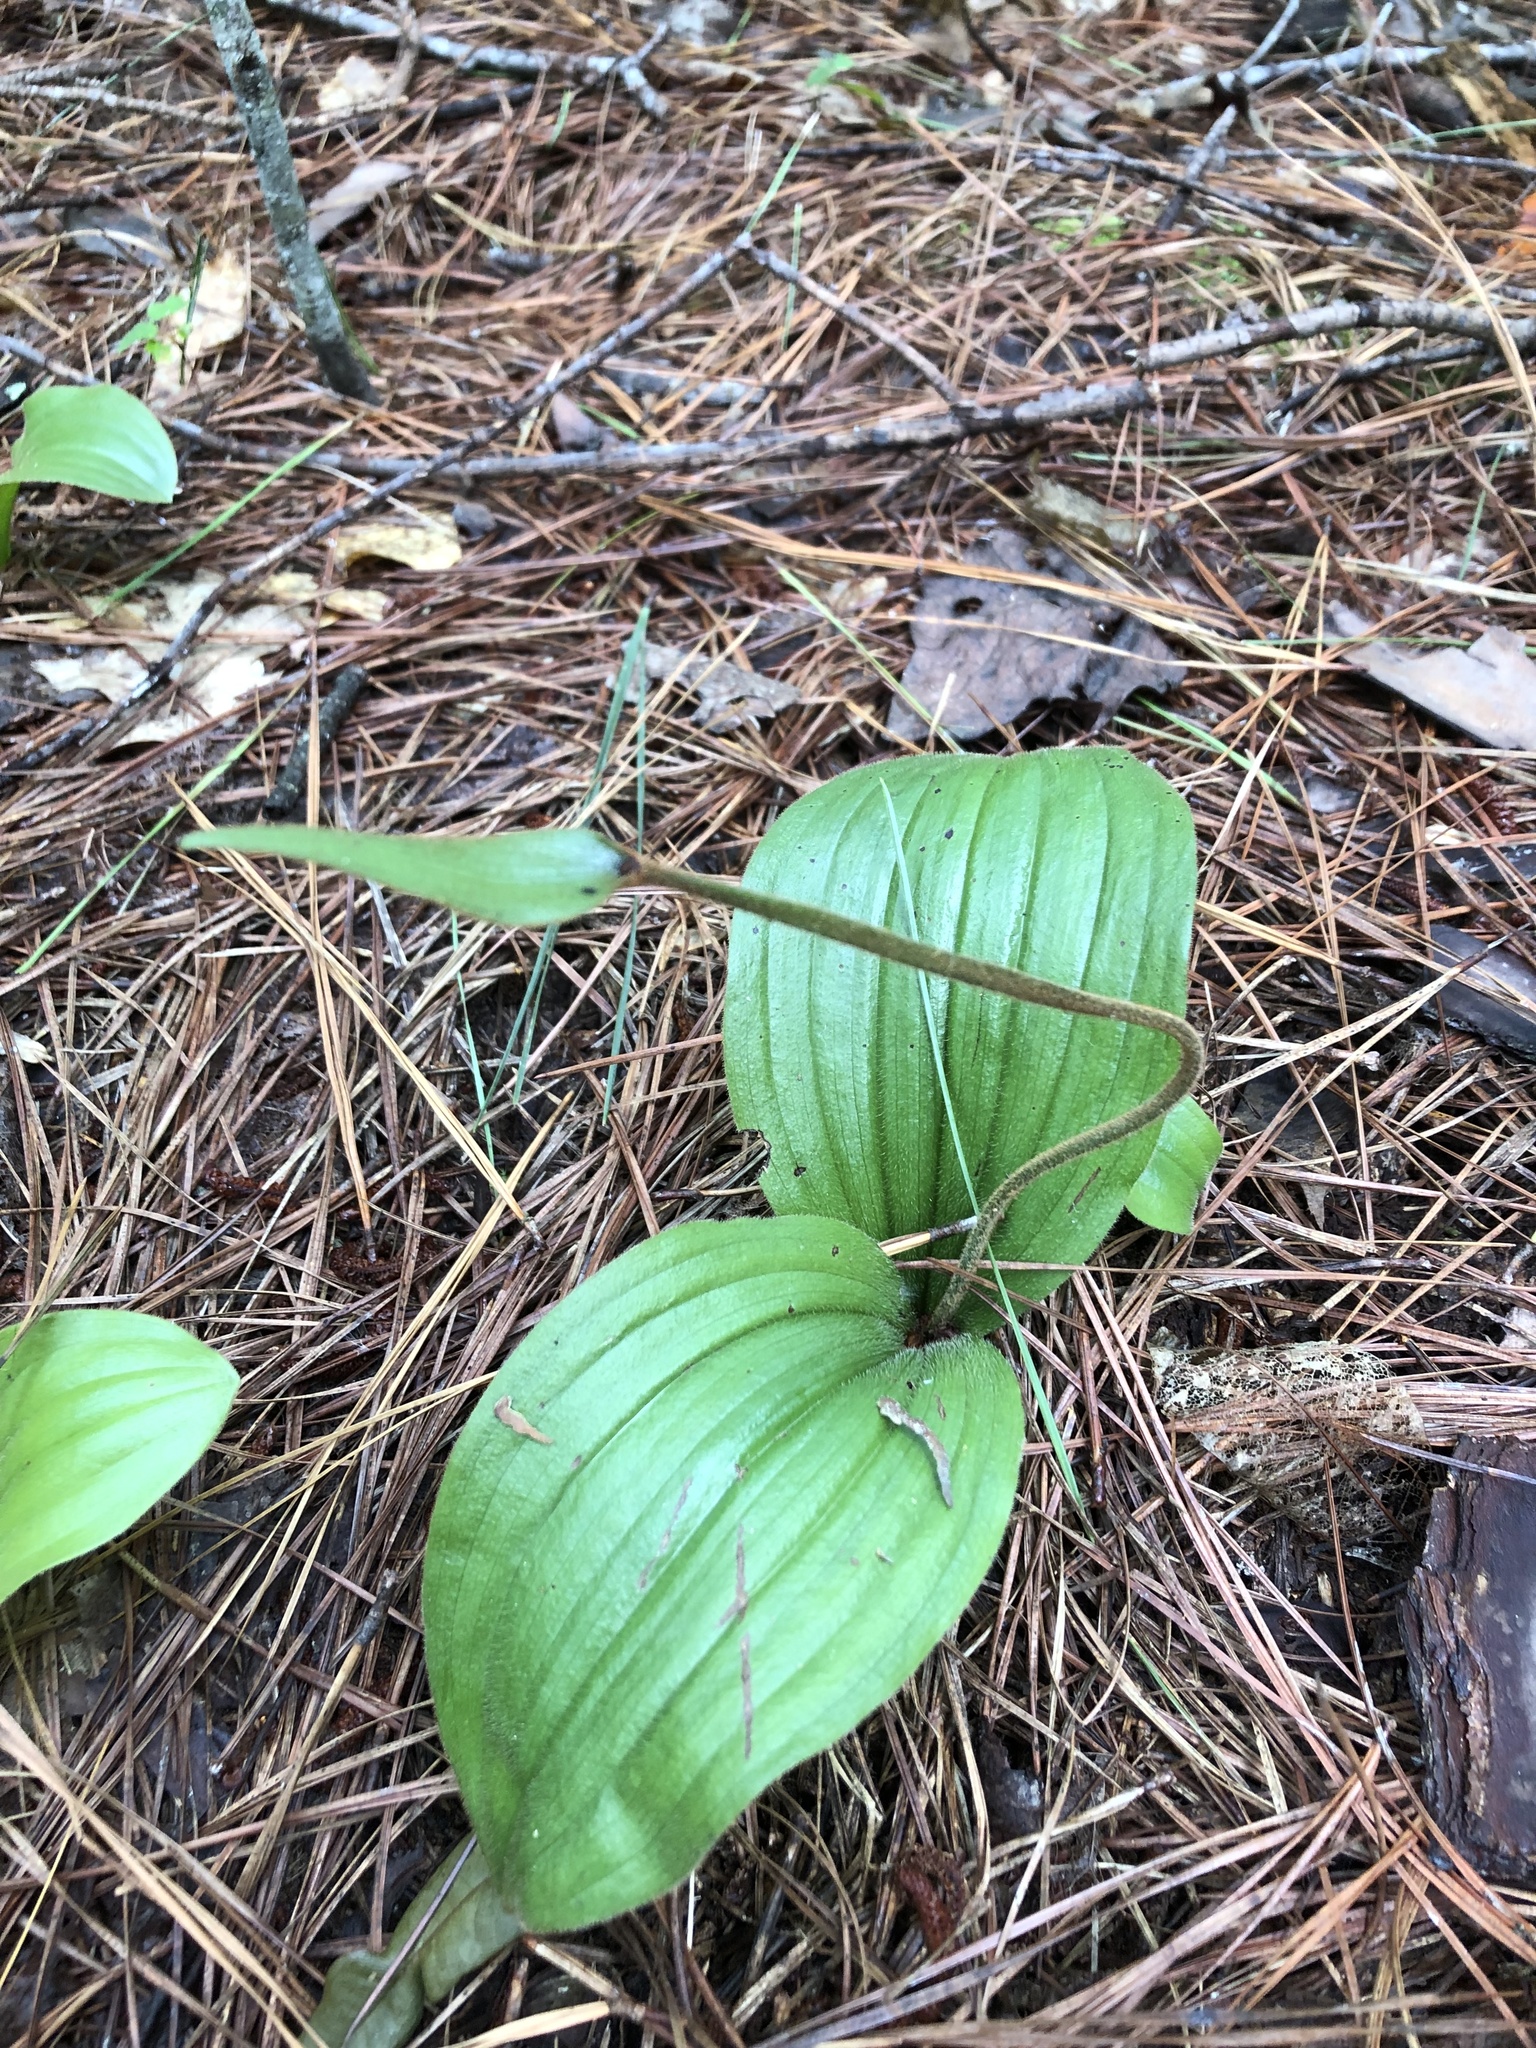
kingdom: Plantae
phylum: Tracheophyta
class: Liliopsida
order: Asparagales
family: Orchidaceae
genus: Cypripedium
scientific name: Cypripedium acaule
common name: Pink lady's-slipper
